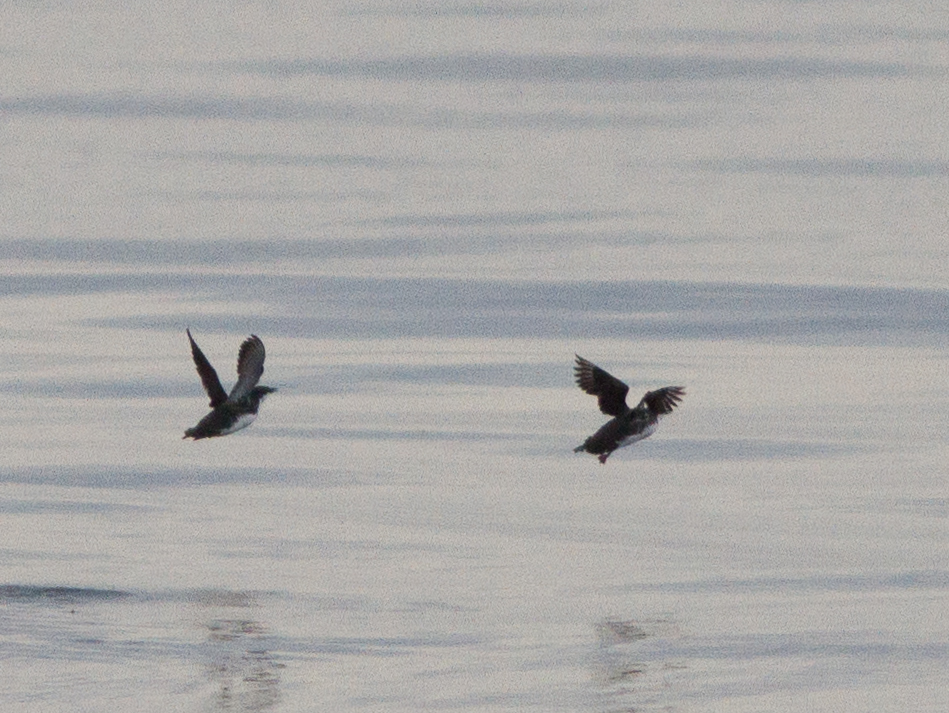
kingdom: Animalia
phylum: Chordata
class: Aves
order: Charadriiformes
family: Alcidae
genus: Synthliboramphus
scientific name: Synthliboramphus scrippsi
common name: Scripps's murrelet
